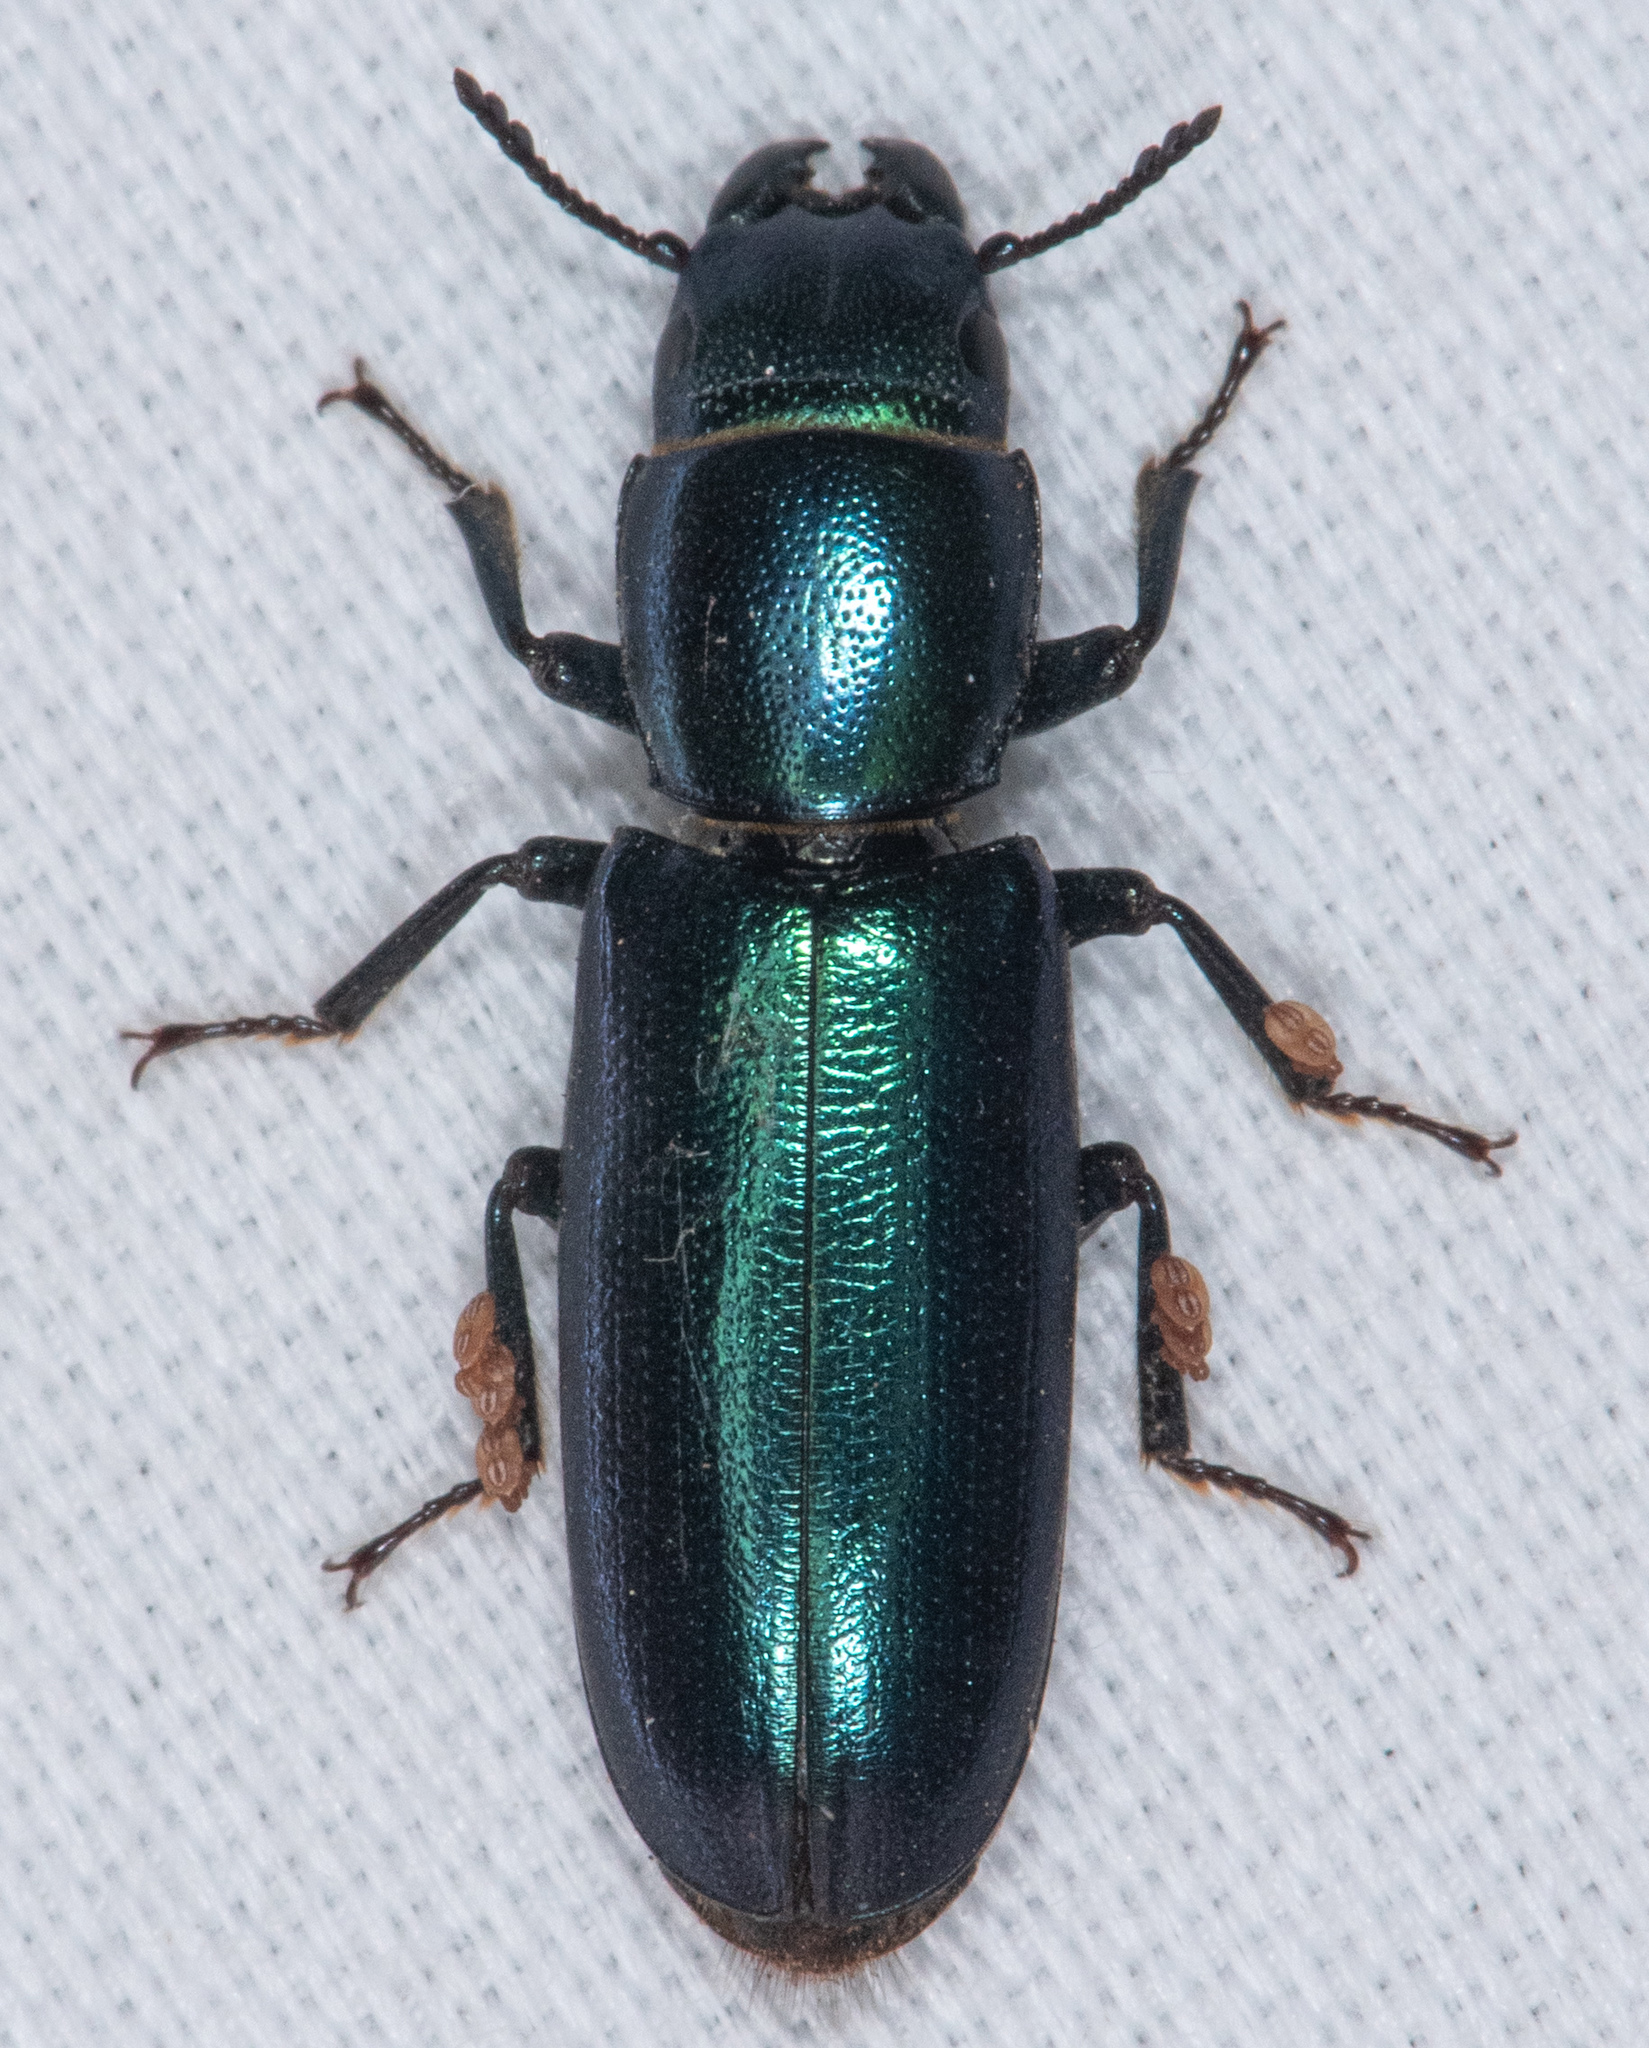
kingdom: Animalia
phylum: Arthropoda
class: Insecta
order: Coleoptera
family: Trogossitidae
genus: Temnoscheila
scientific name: Temnoscheila chlorodia
